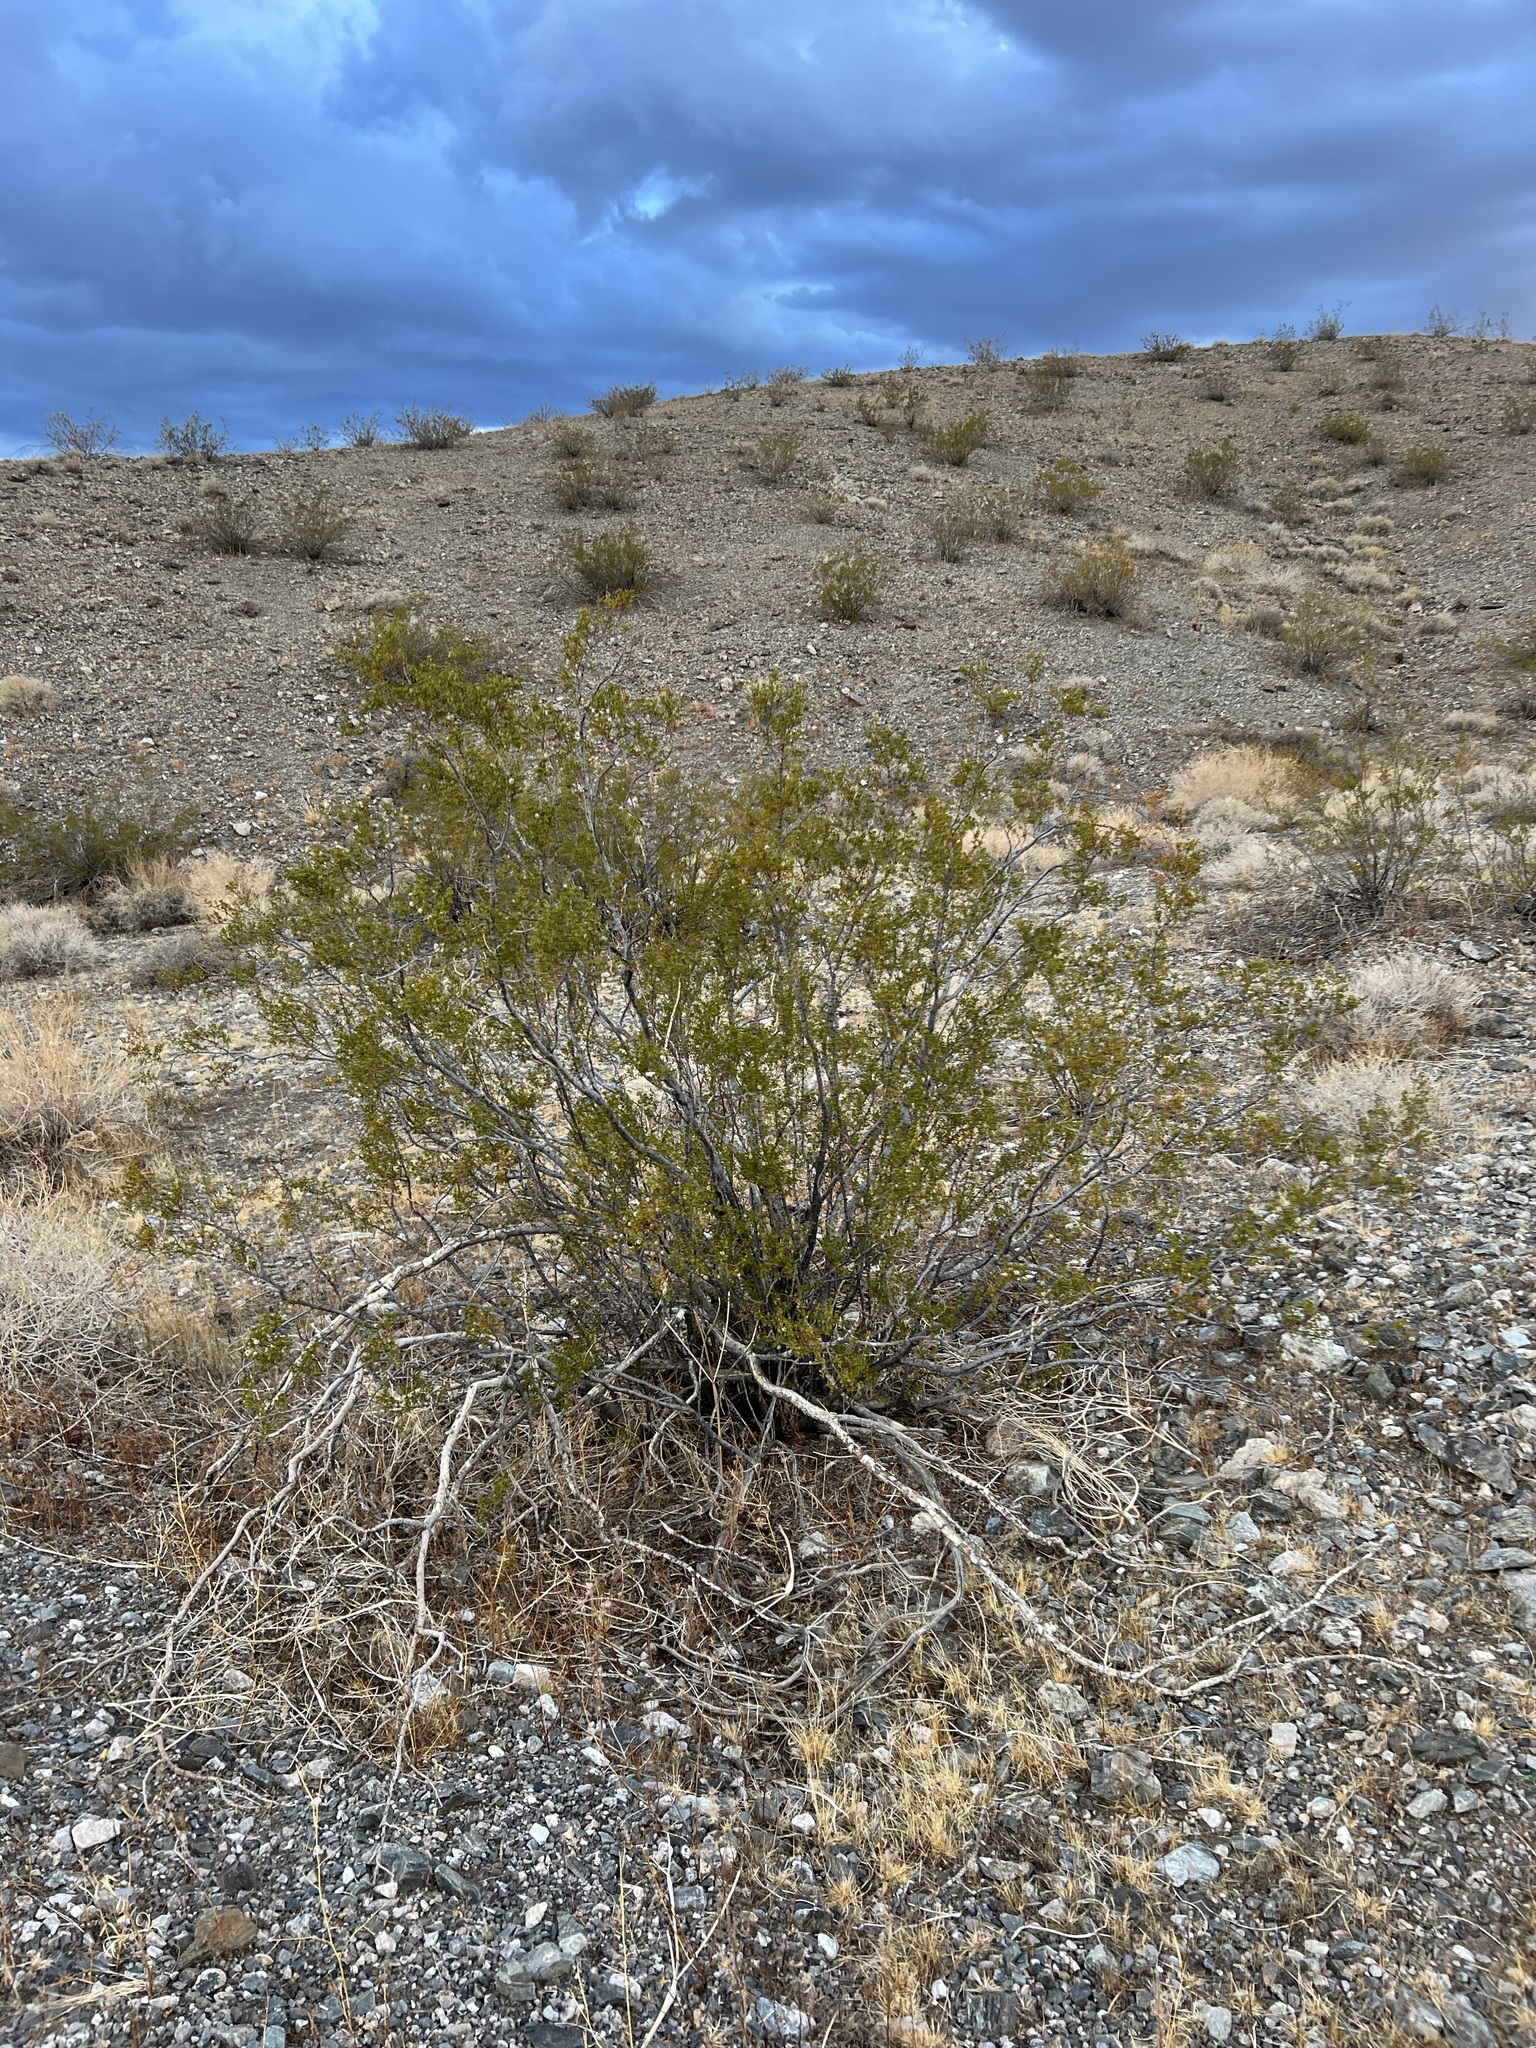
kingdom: Plantae
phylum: Tracheophyta
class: Magnoliopsida
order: Zygophyllales
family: Zygophyllaceae
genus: Larrea
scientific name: Larrea tridentata
